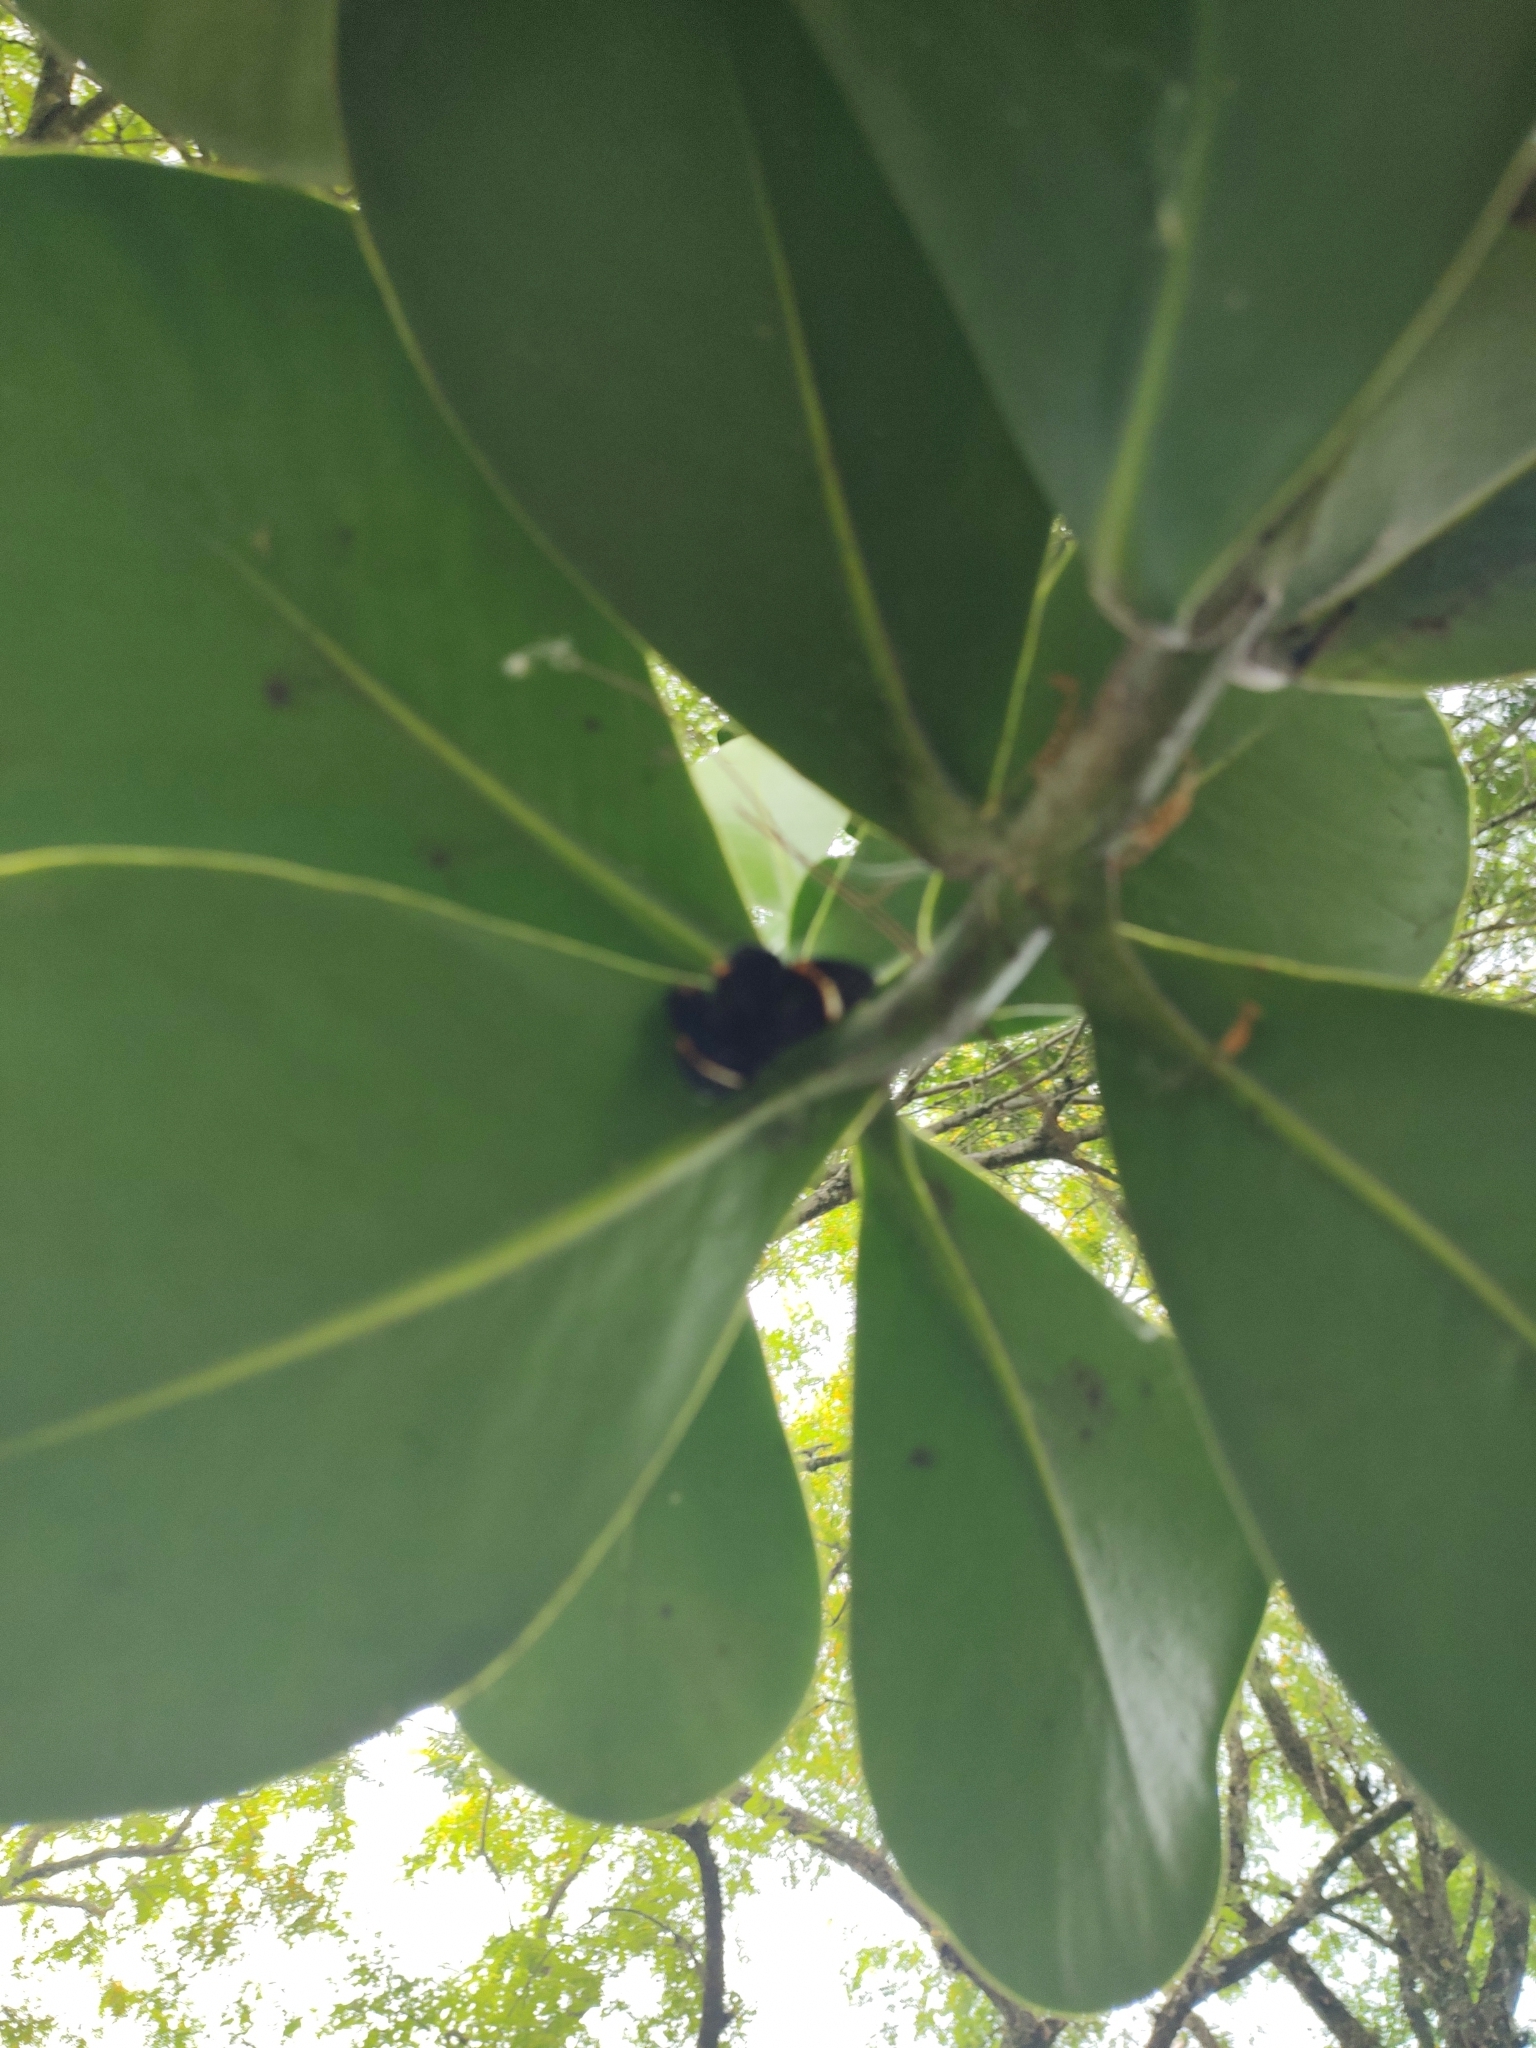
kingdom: Animalia
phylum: Arthropoda
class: Insecta
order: Lepidoptera
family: Riodinidae
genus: Riodina
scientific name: Riodina lycisca
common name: Lycisca metalmark
